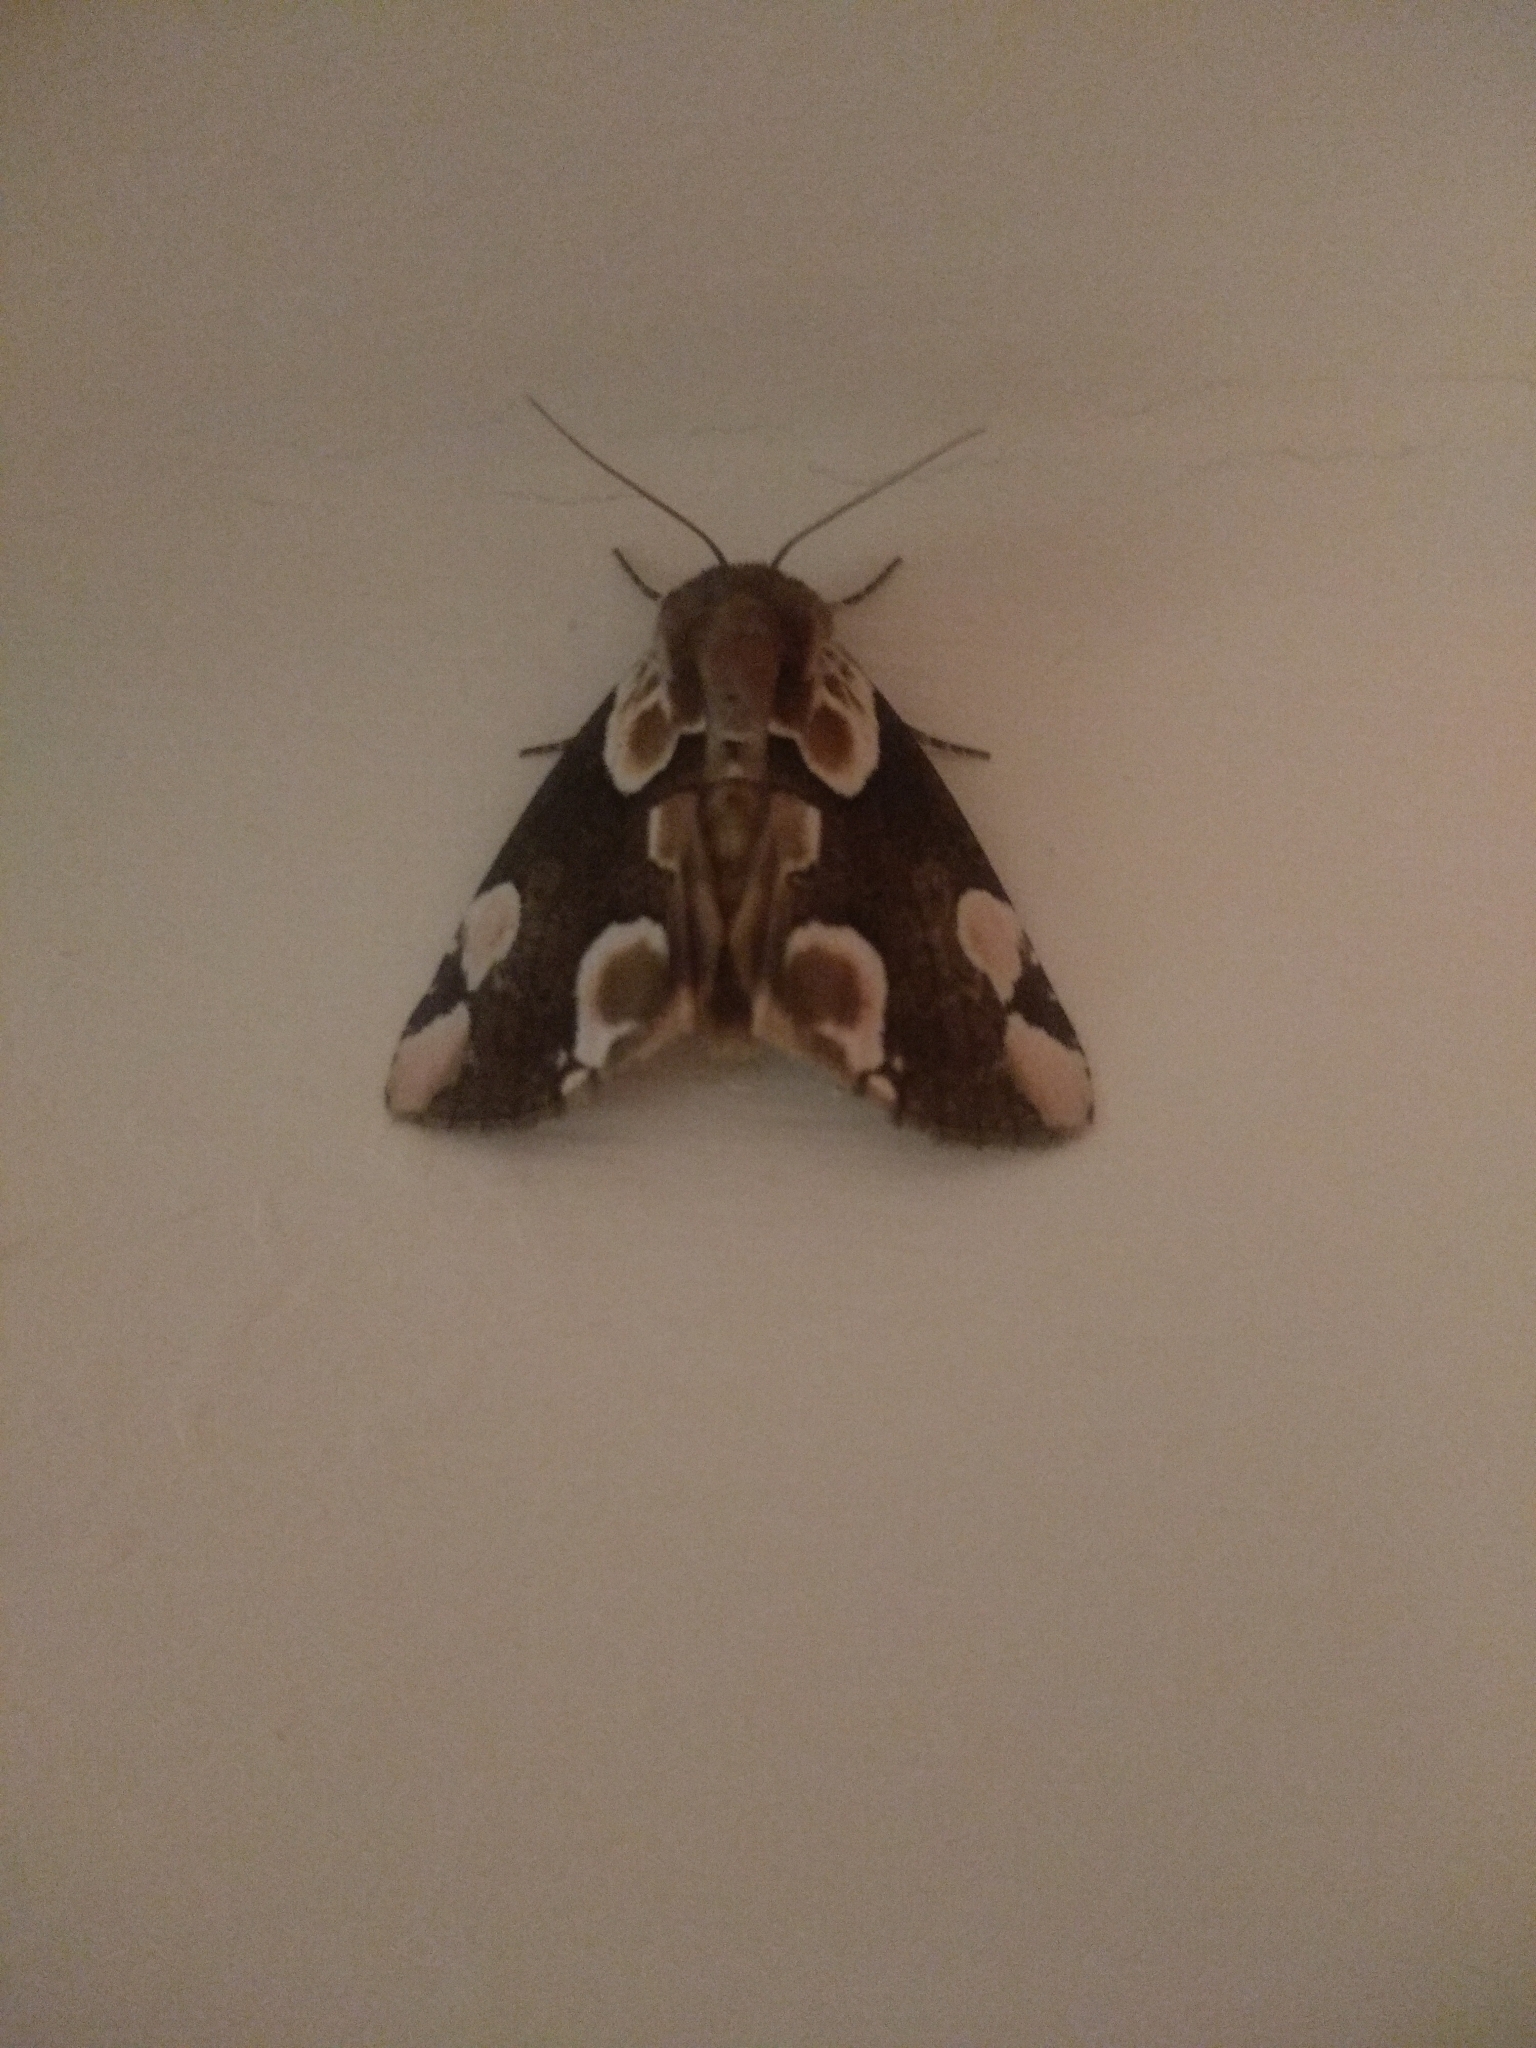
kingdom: Animalia
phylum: Arthropoda
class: Insecta
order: Lepidoptera
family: Drepanidae
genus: Thyatira
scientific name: Thyatira batis
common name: Peach blossom
